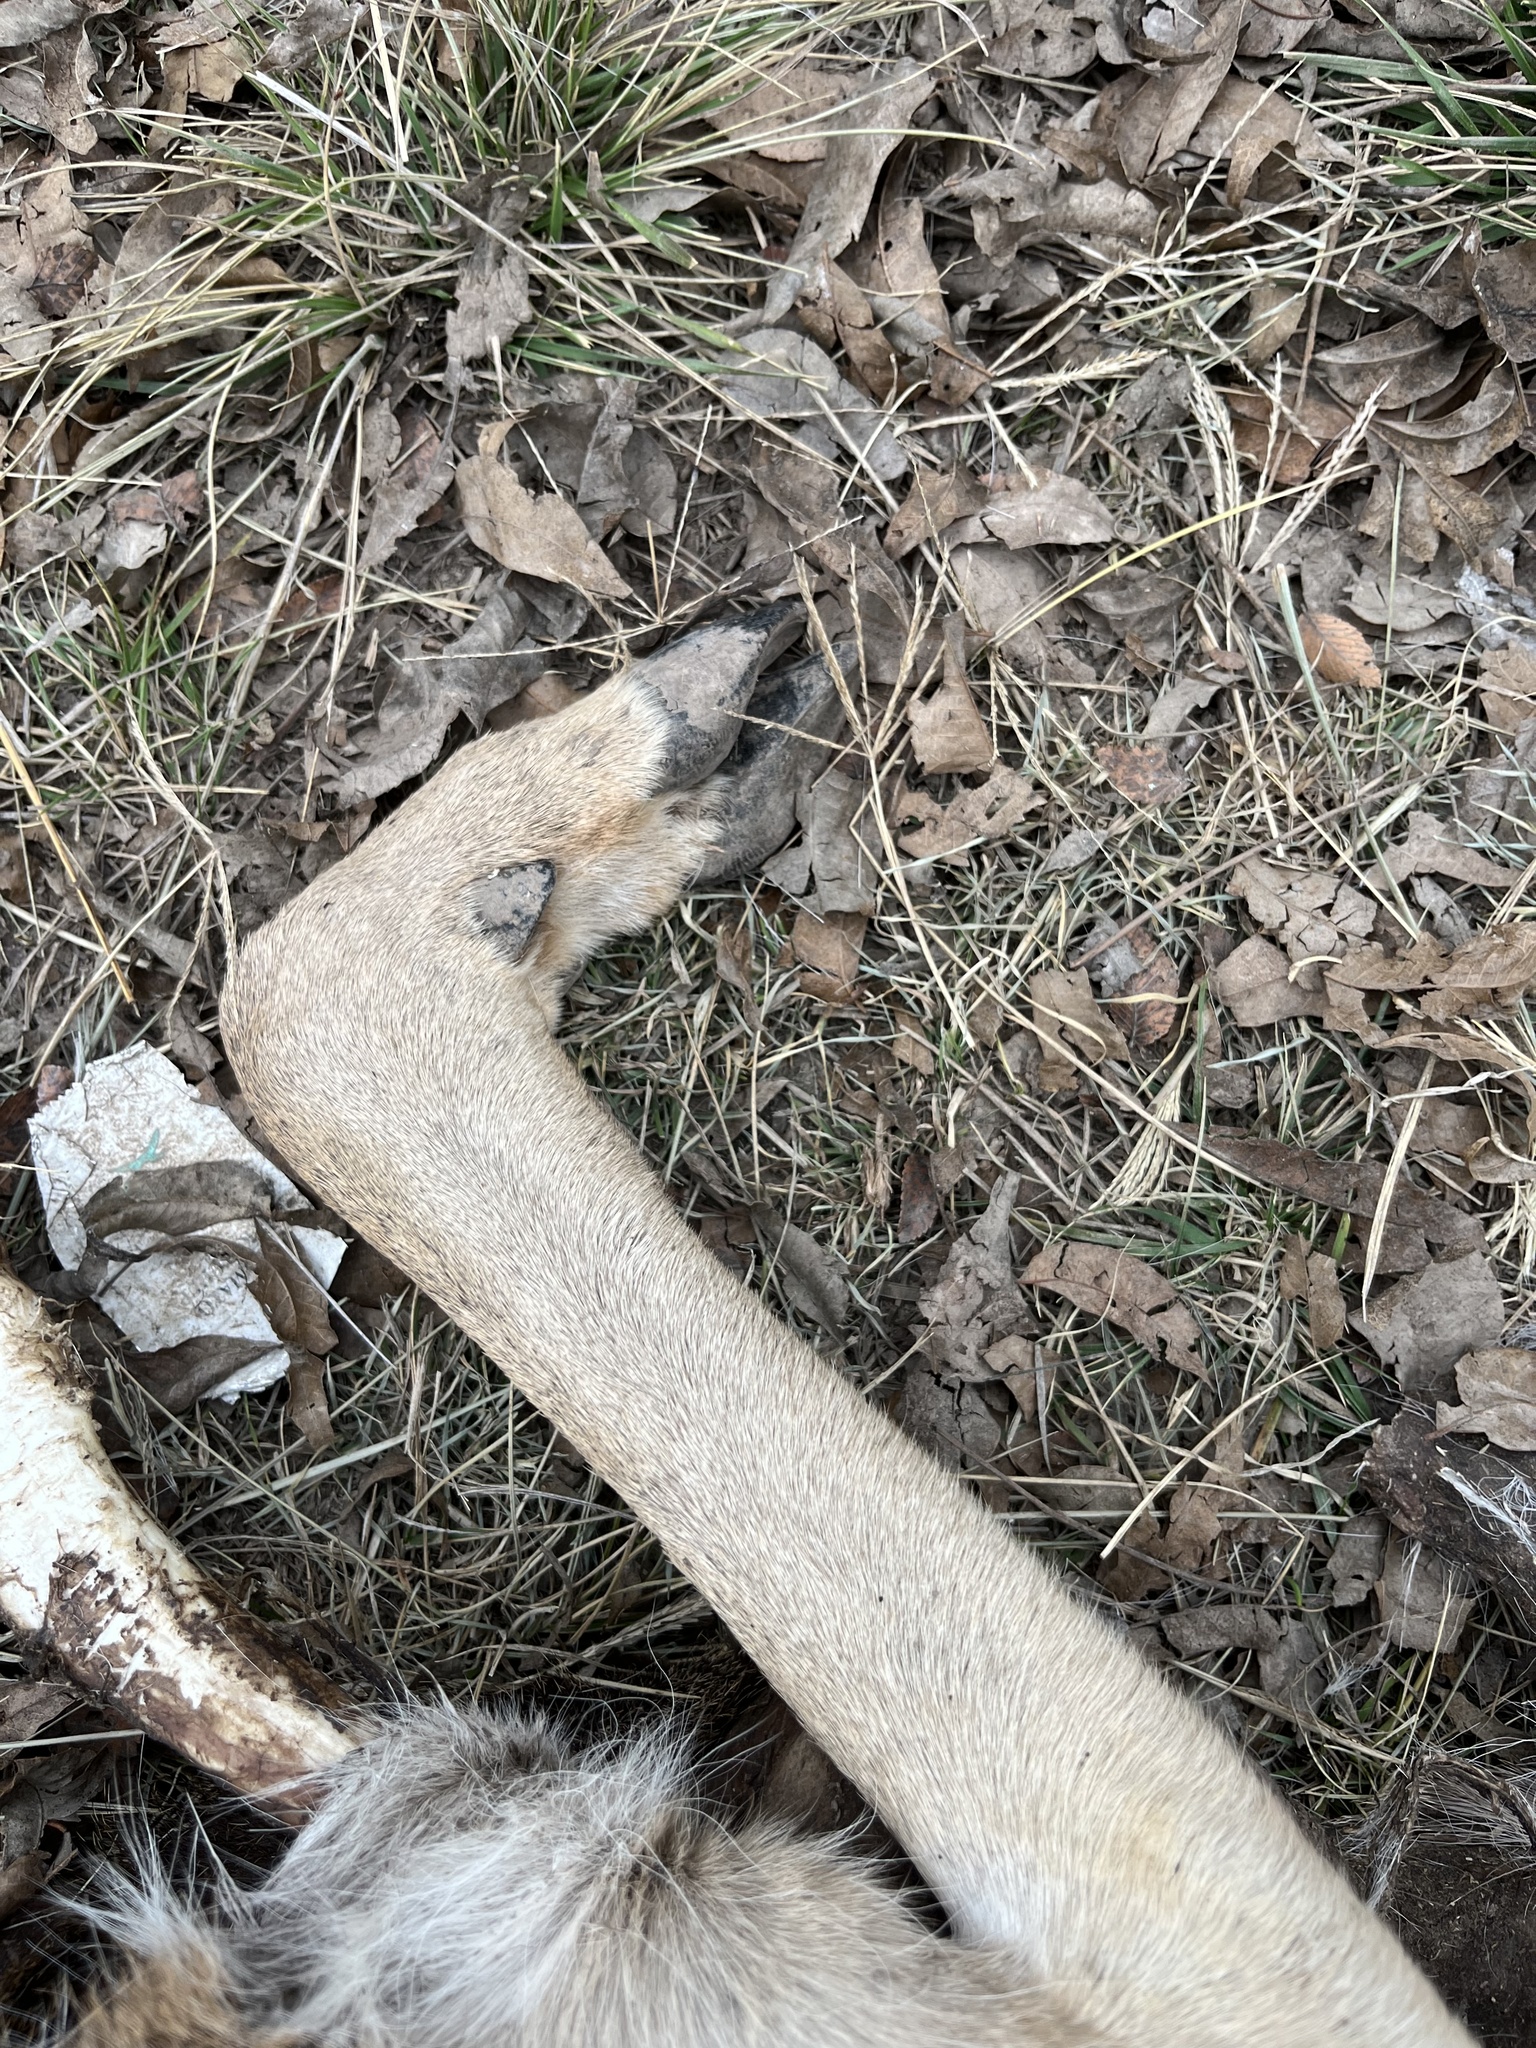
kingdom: Animalia
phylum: Chordata
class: Mammalia
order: Artiodactyla
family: Cervidae
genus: Odocoileus
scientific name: Odocoileus virginianus
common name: White-tailed deer
